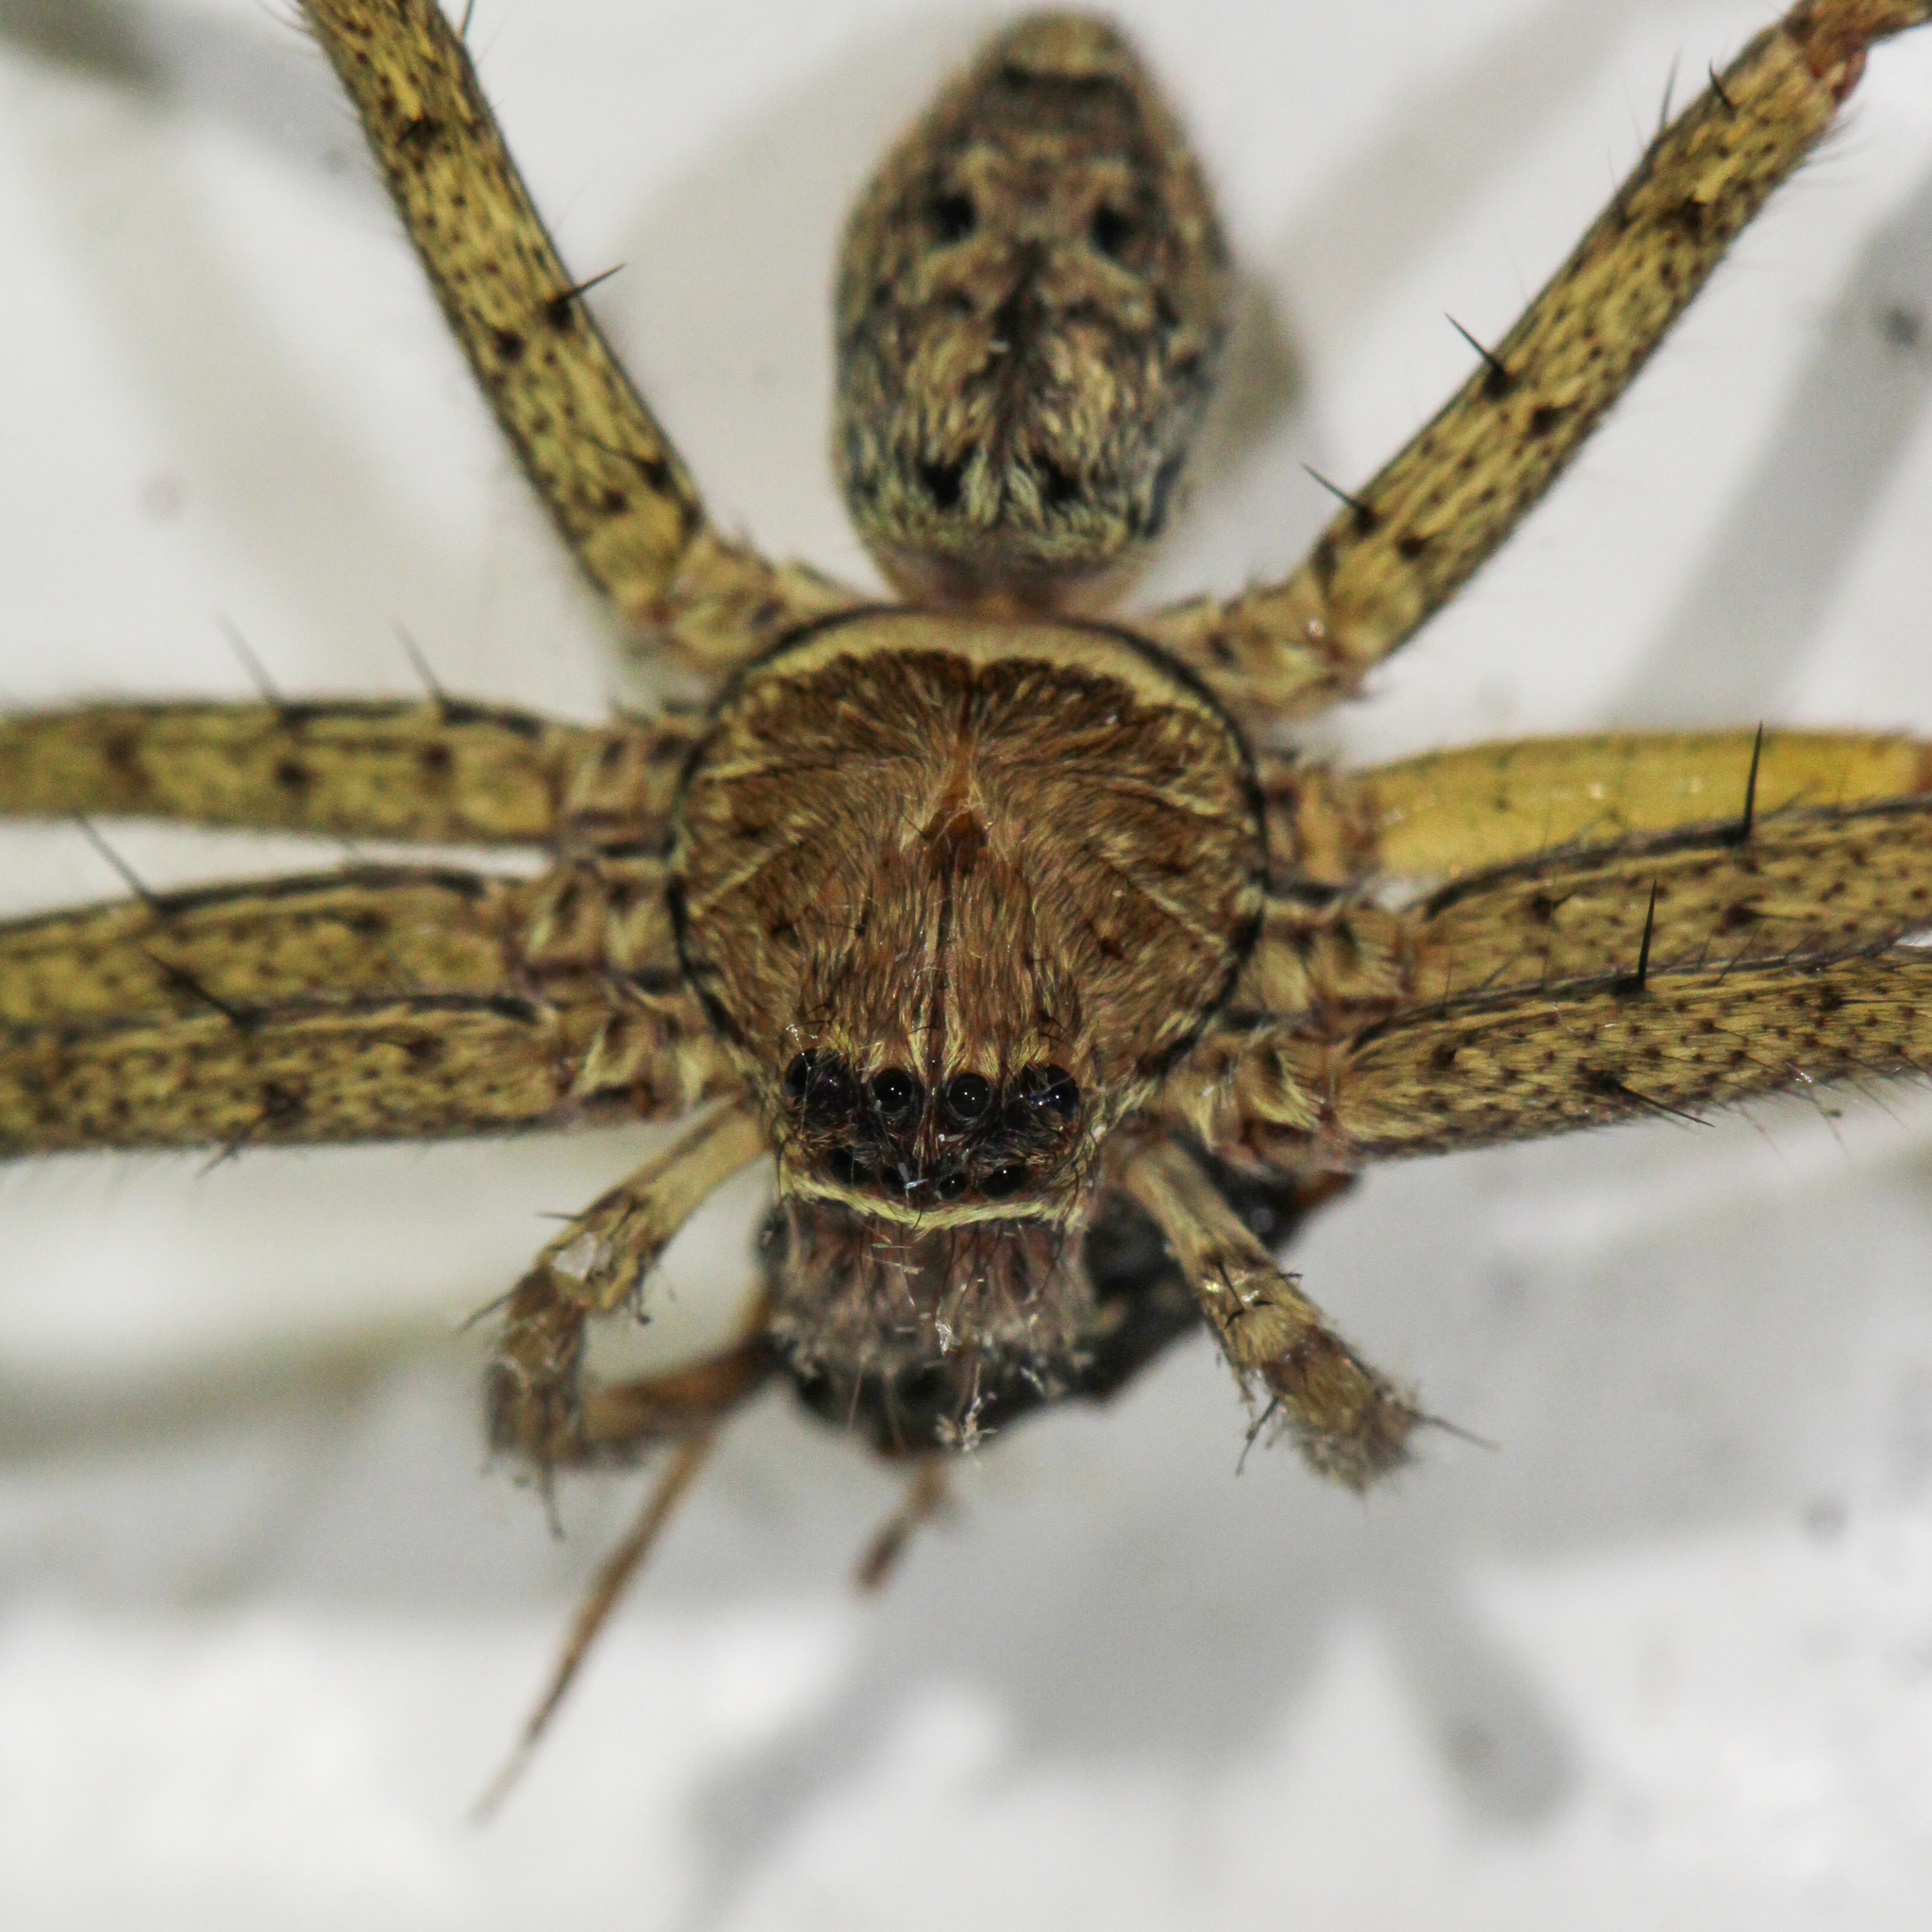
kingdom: Animalia
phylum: Arthropoda
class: Arachnida
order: Araneae
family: Sparassidae
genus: Heteropoda
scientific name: Heteropoda venatoria
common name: Huntsman spider
